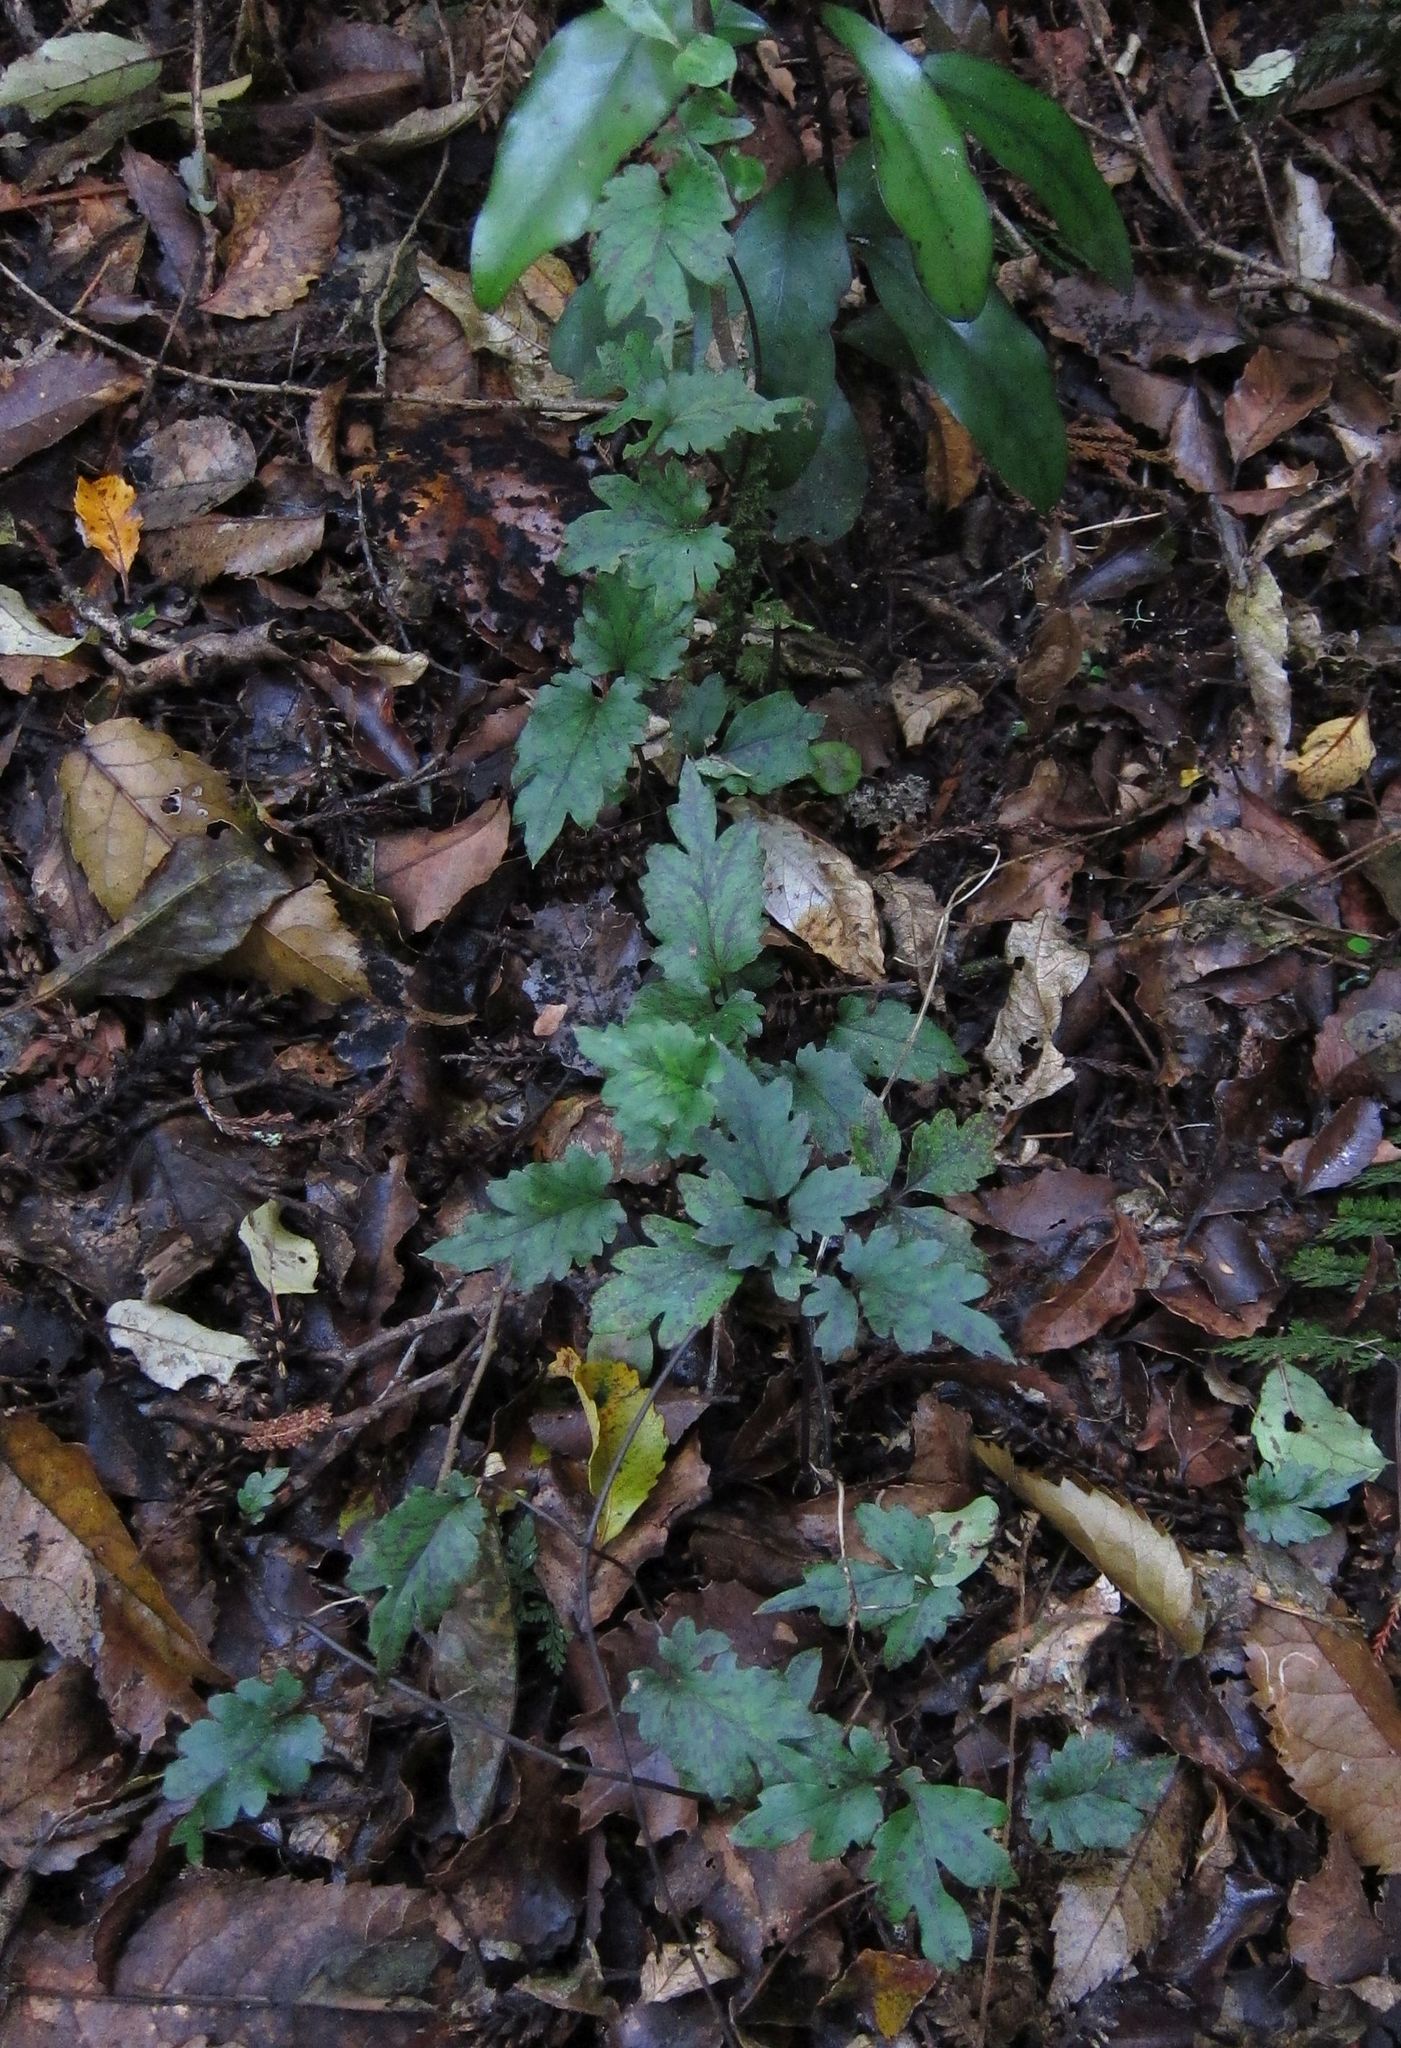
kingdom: Plantae
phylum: Tracheophyta
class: Magnoliopsida
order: Ranunculales
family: Ranunculaceae
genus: Clematis
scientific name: Clematis paniculata
